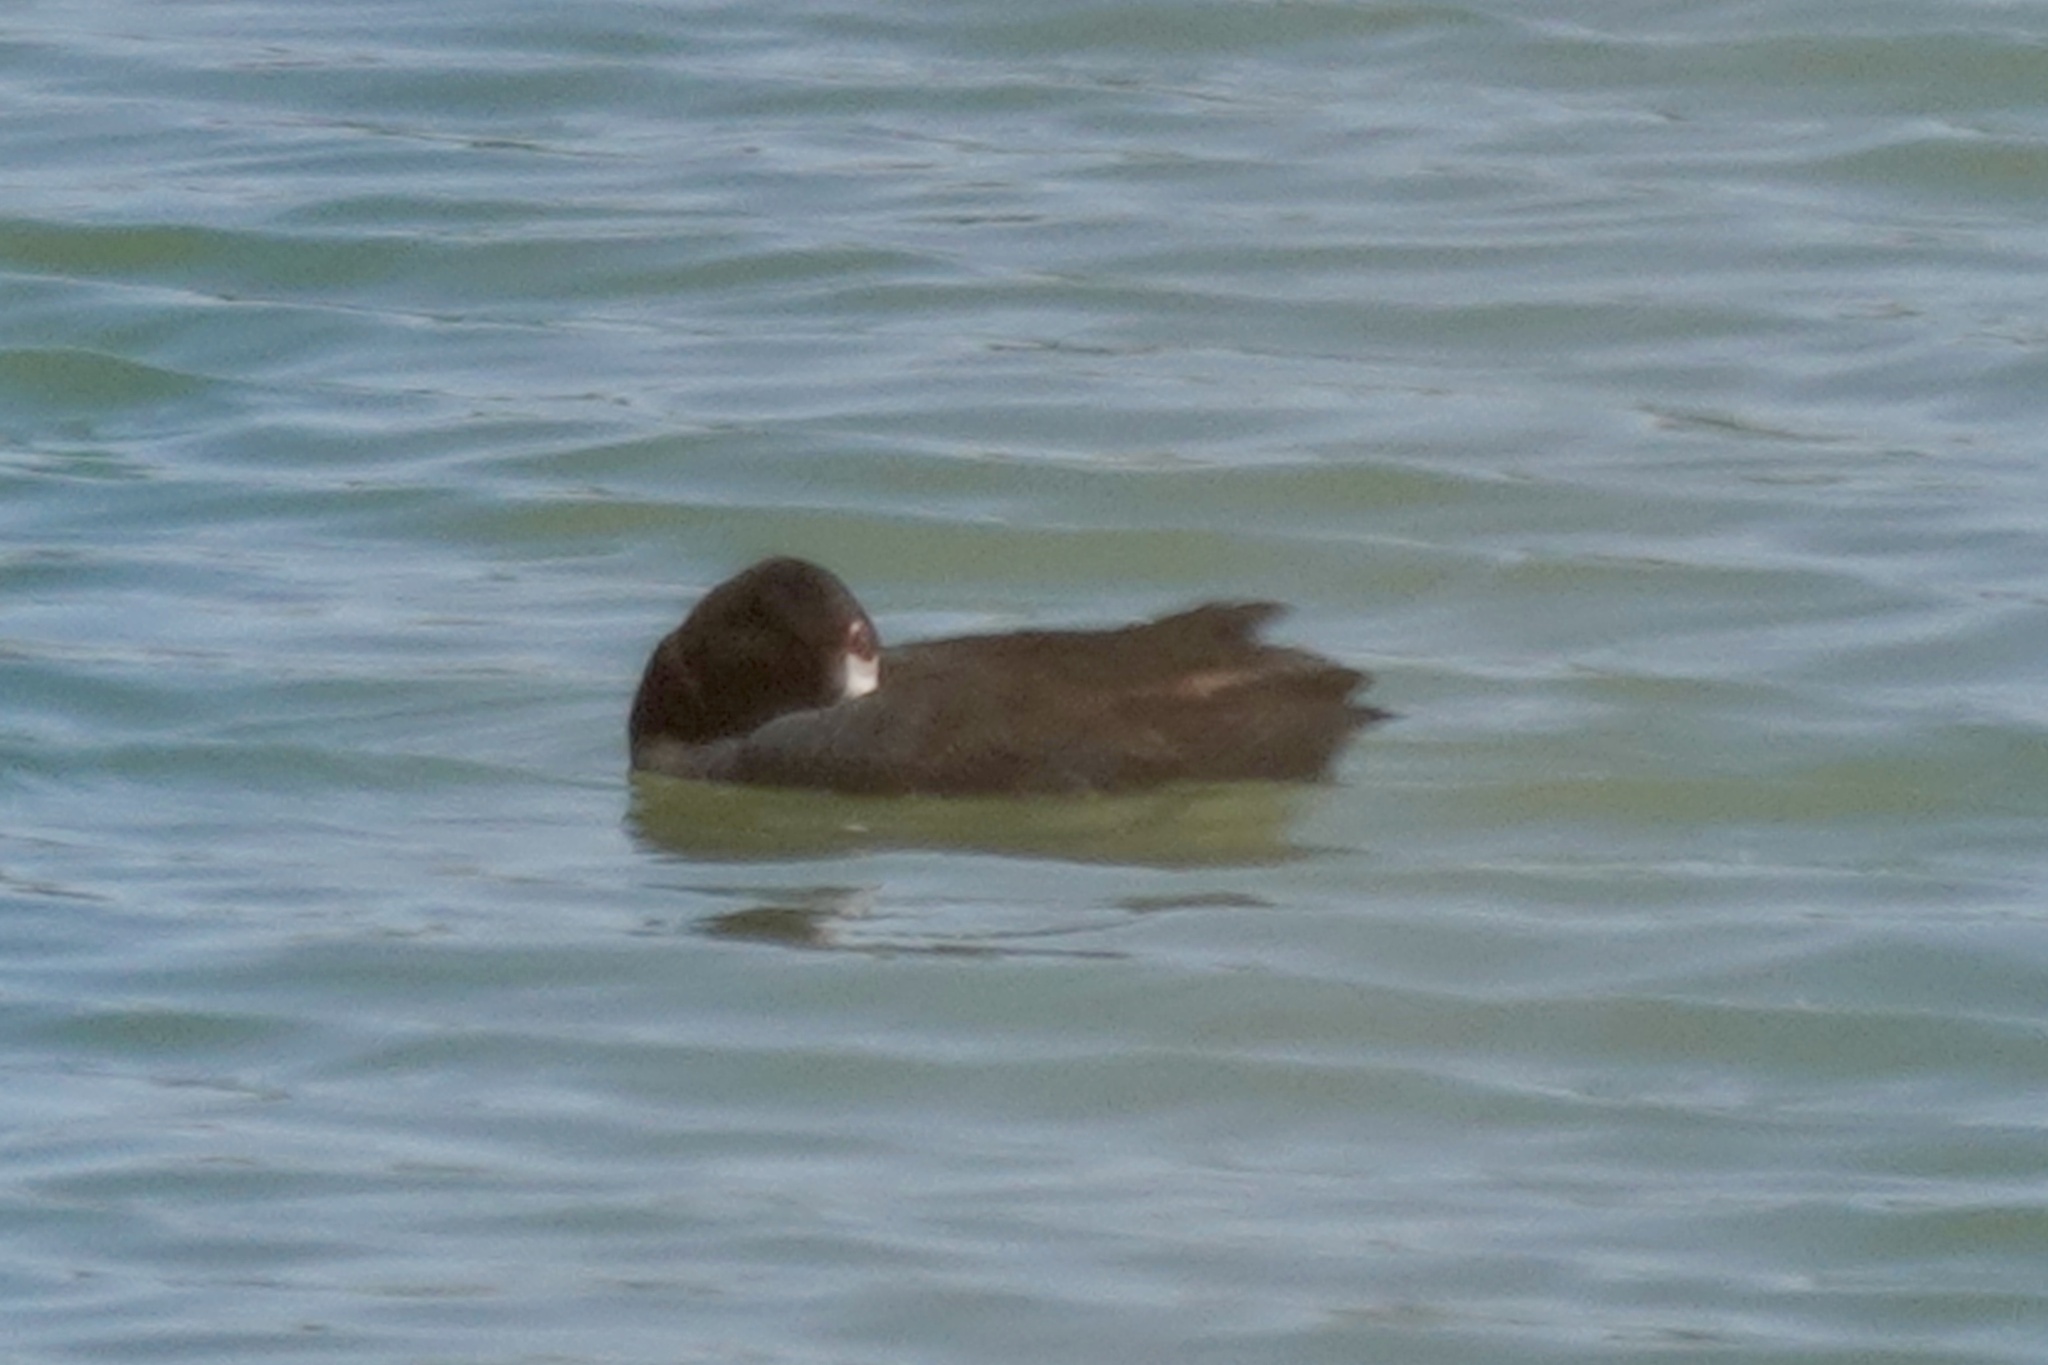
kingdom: Animalia
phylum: Chordata
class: Aves
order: Gruiformes
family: Rallidae
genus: Fulica
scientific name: Fulica americana
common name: American coot
